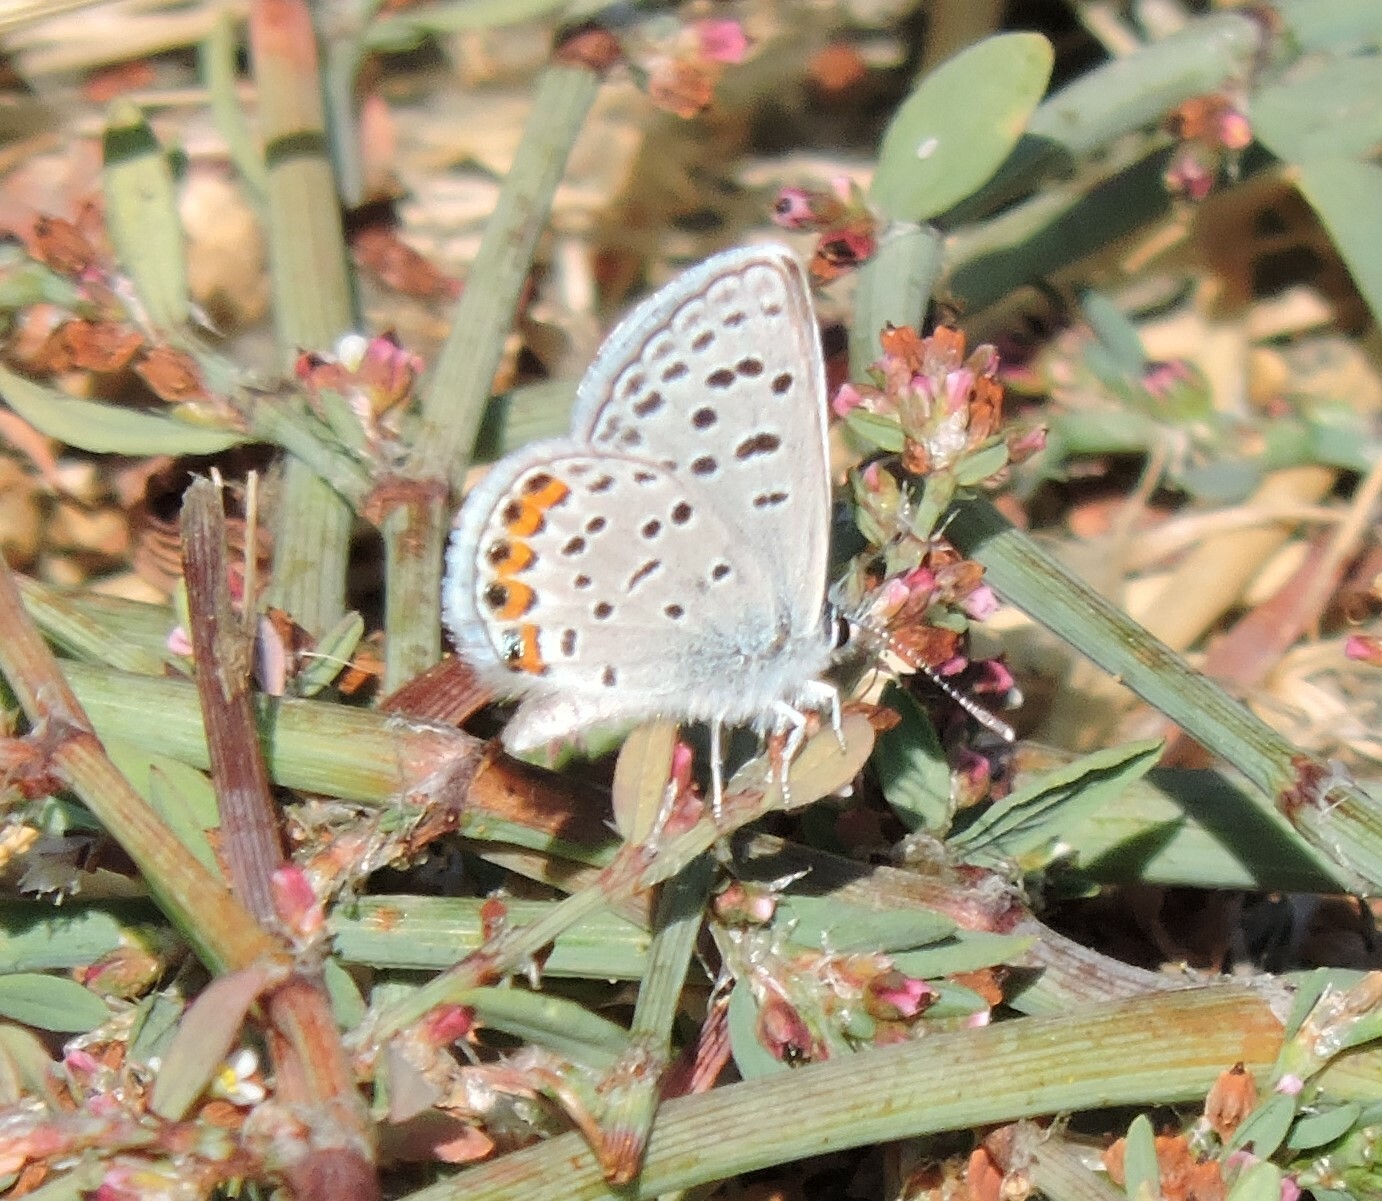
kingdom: Animalia
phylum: Arthropoda
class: Insecta
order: Lepidoptera
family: Lycaenidae
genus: Icaricia
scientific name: Icaricia acmon
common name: Acmon blue
